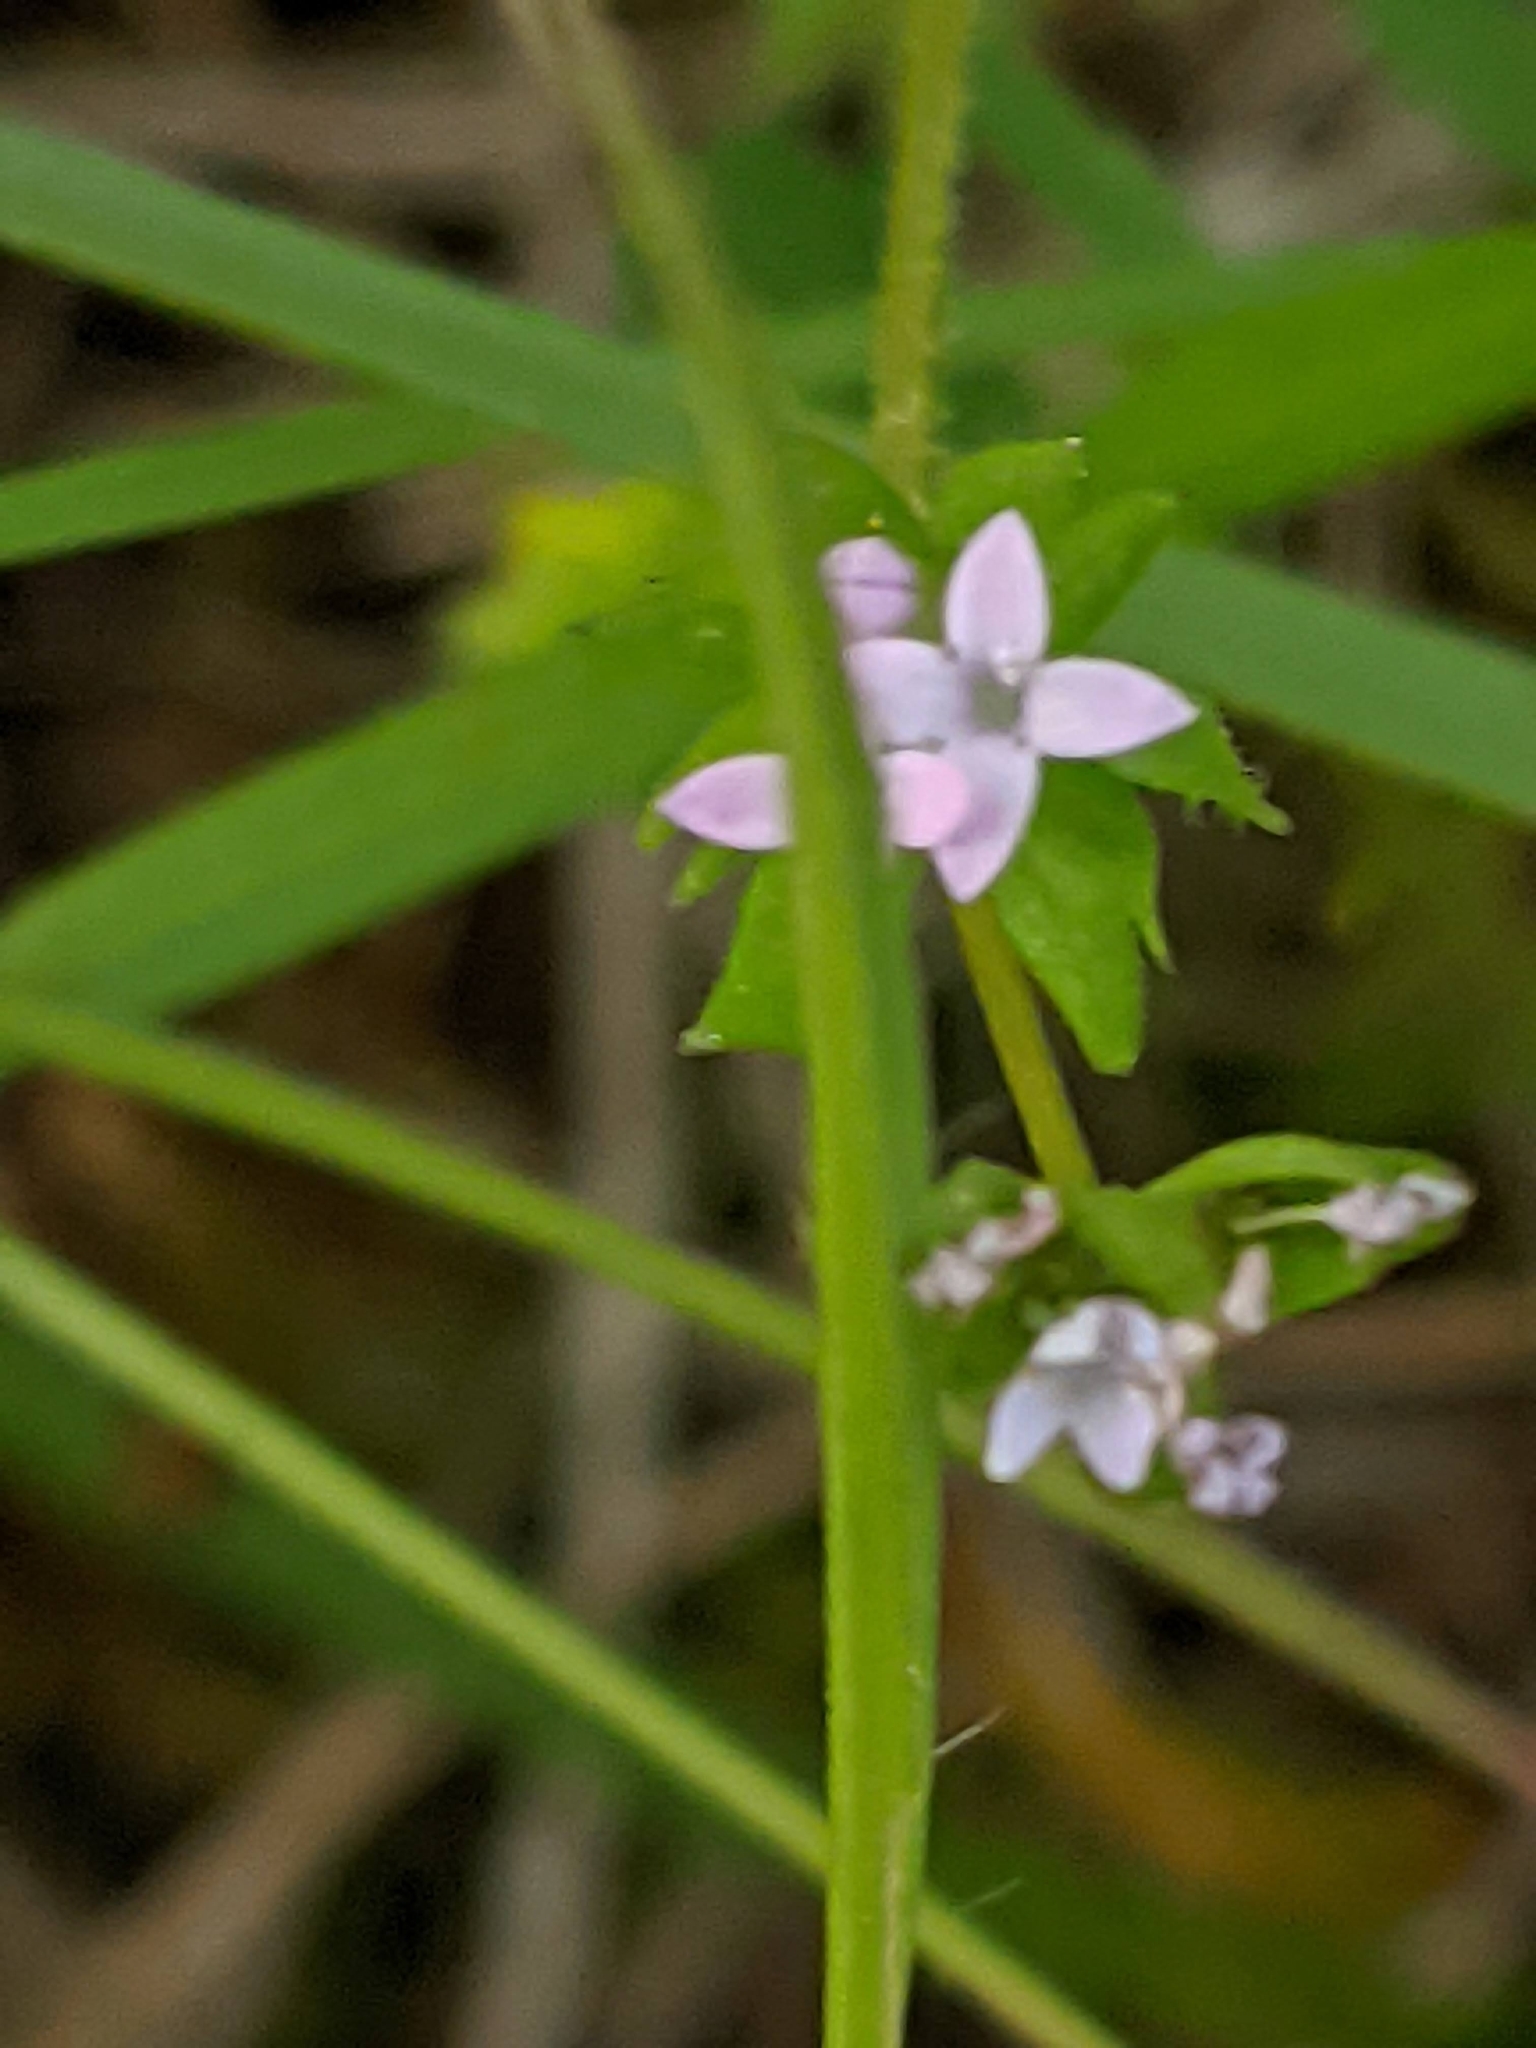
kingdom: Plantae
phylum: Tracheophyta
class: Magnoliopsida
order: Gentianales
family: Rubiaceae
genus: Sherardia
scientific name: Sherardia arvensis
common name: Field madder
